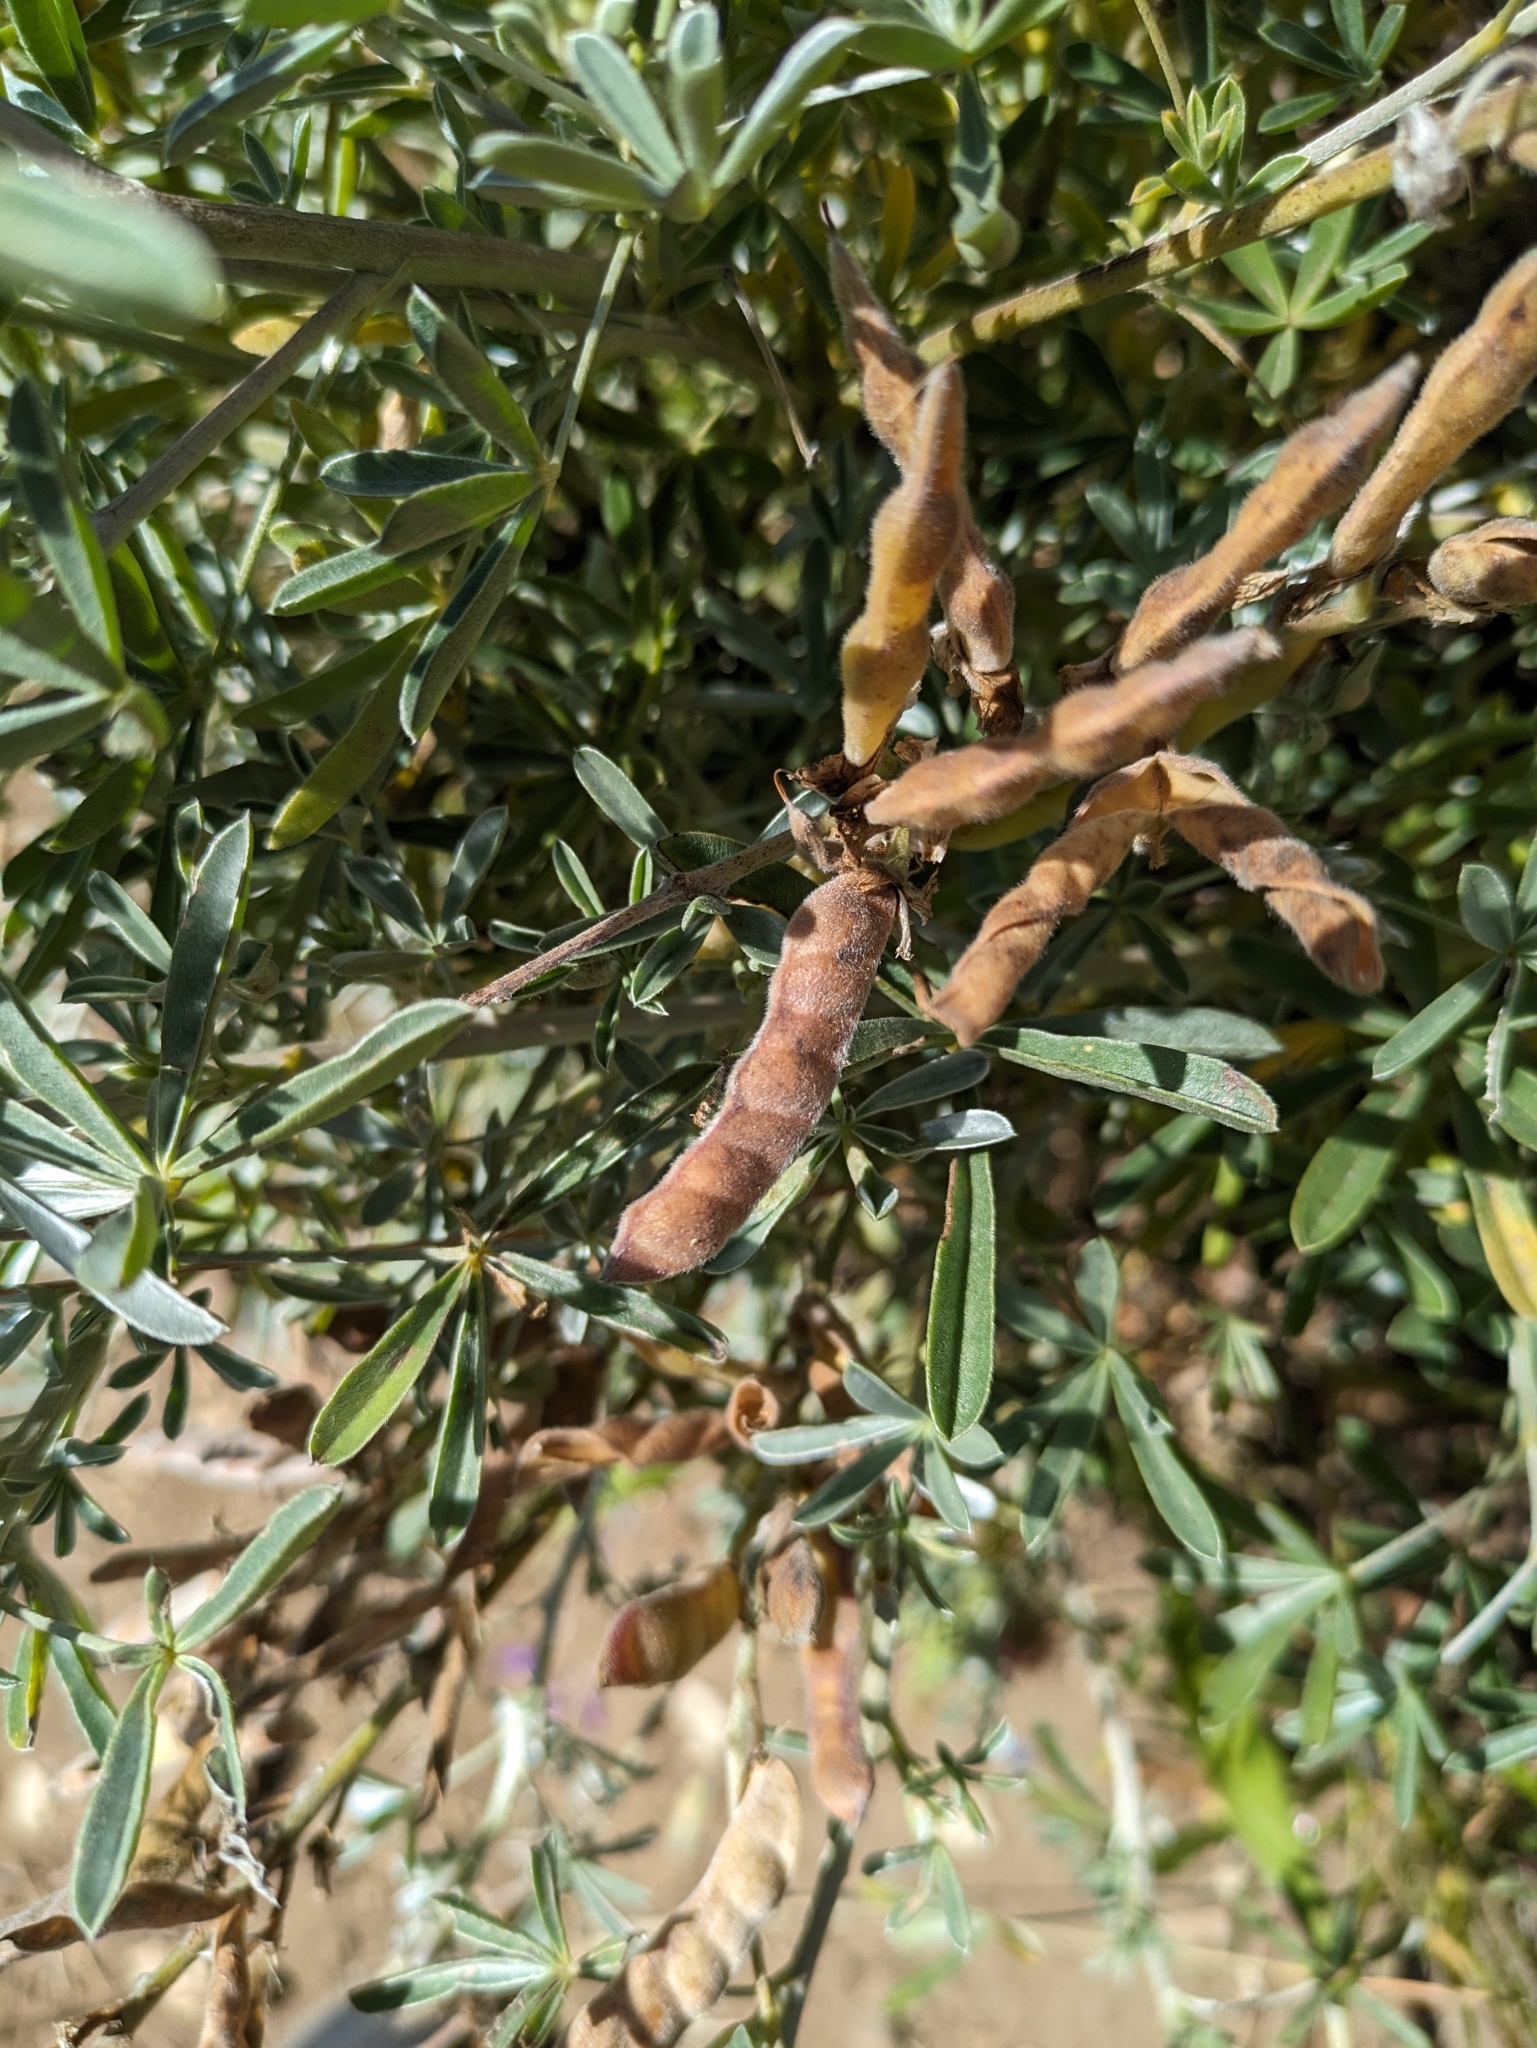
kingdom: Plantae
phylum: Tracheophyta
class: Magnoliopsida
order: Fabales
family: Fabaceae
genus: Lupinus
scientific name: Lupinus albifrons
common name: Foothill lupine
